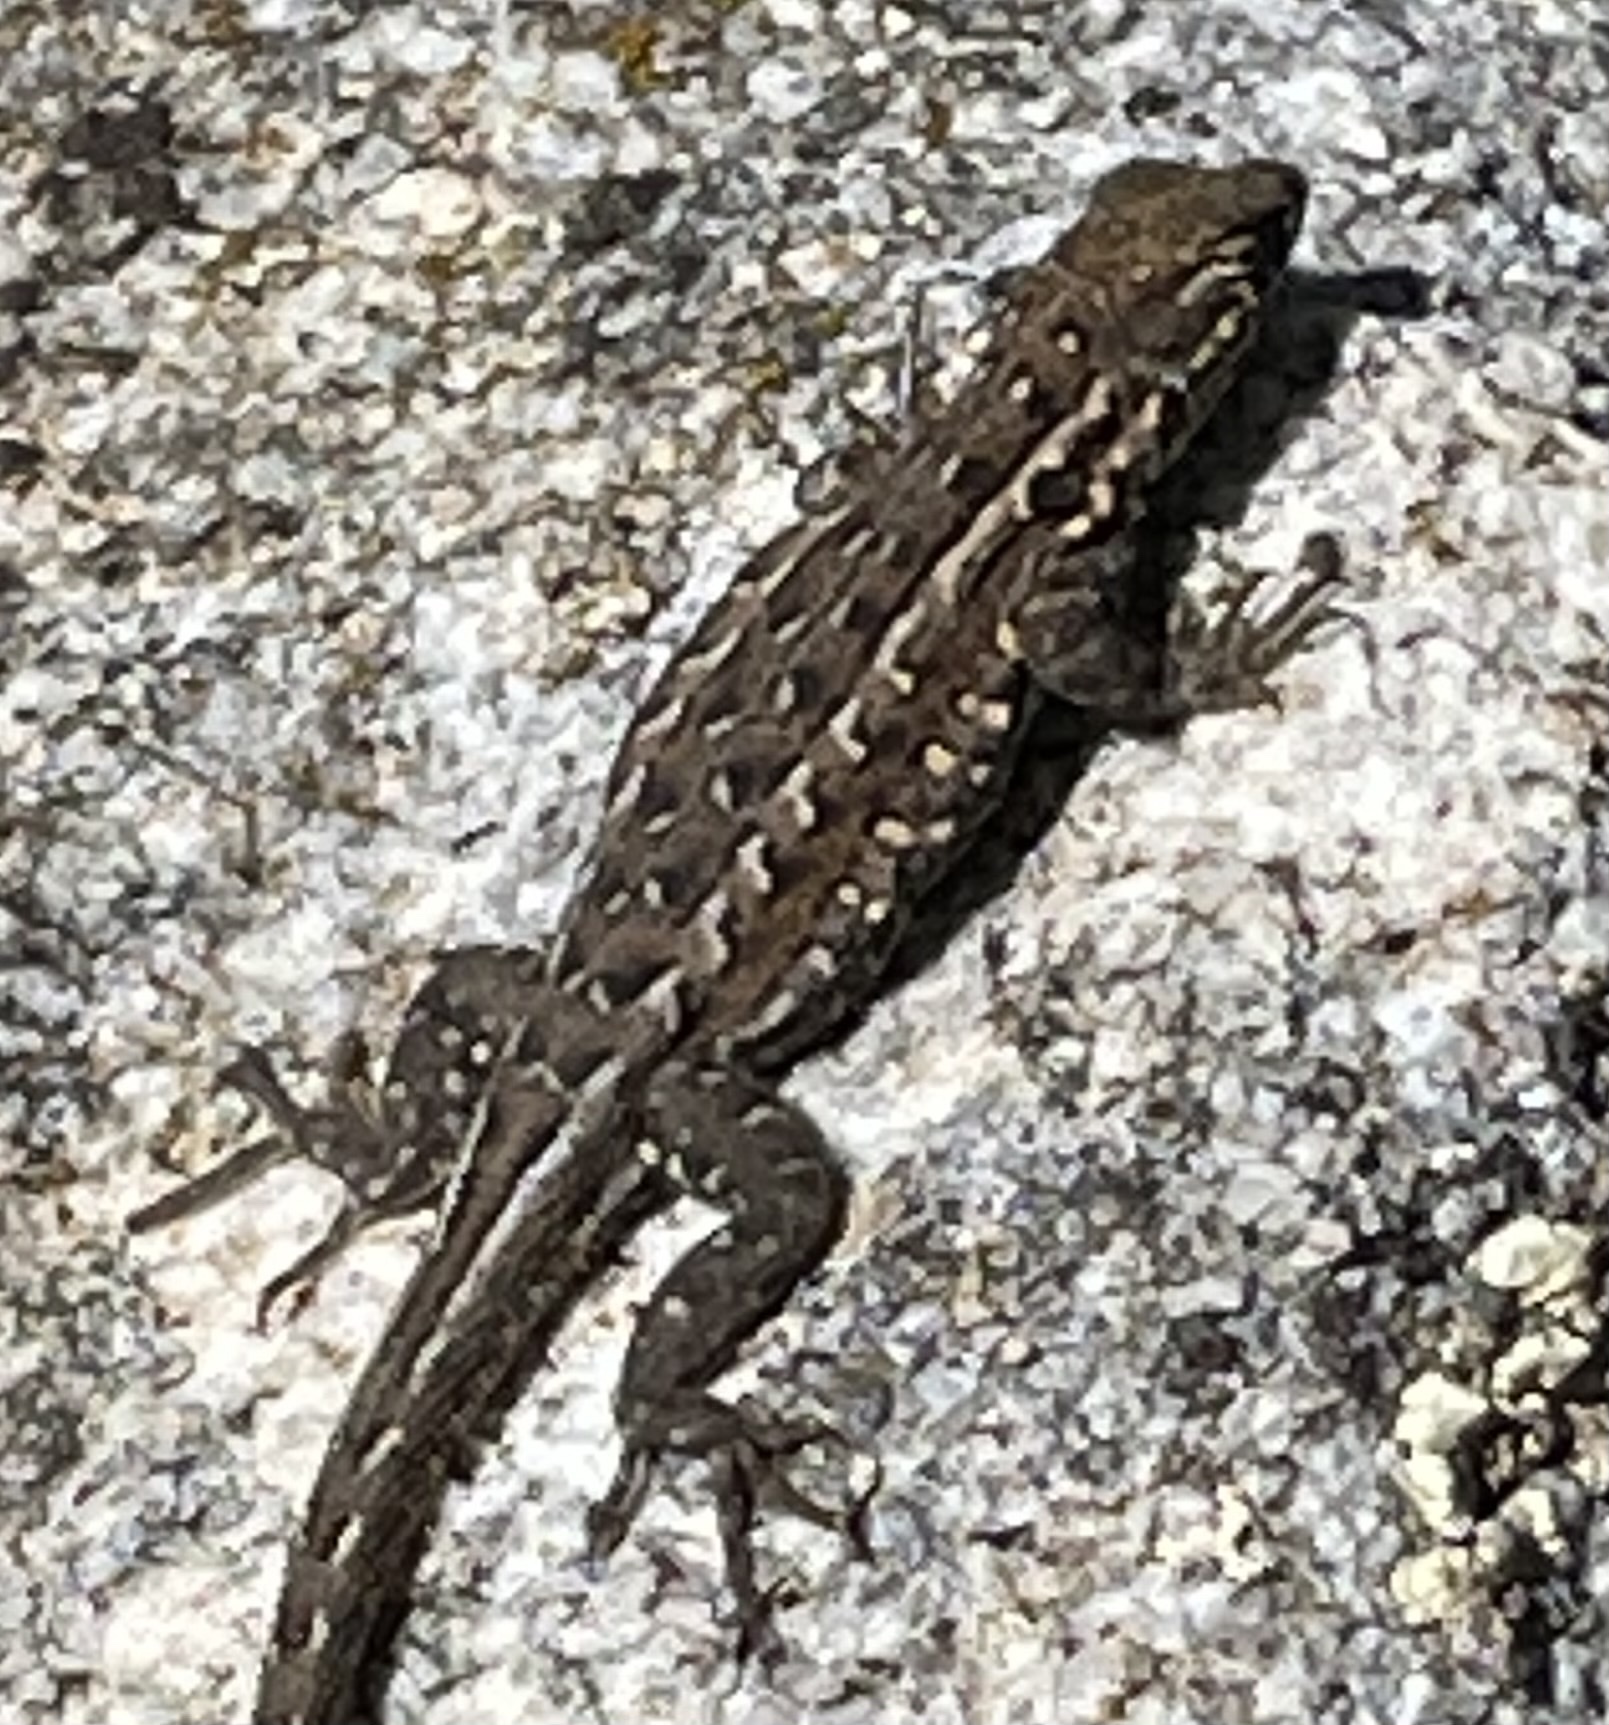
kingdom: Animalia
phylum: Chordata
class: Squamata
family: Phrynosomatidae
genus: Uta
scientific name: Uta stansburiana
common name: Side-blotched lizard
